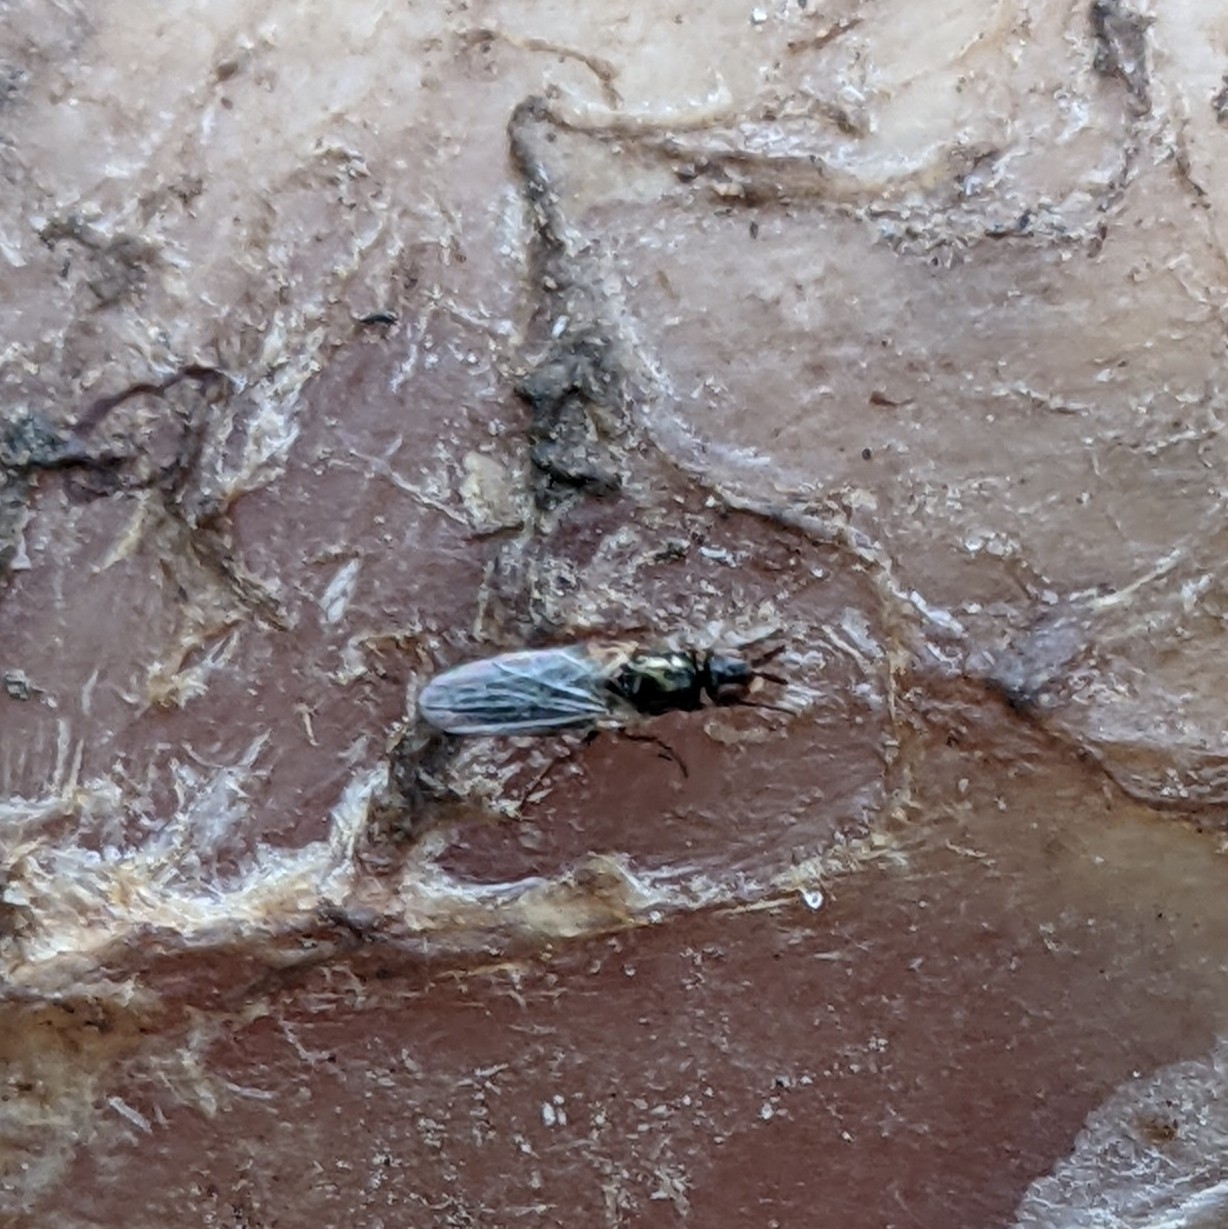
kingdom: Animalia
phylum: Arthropoda
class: Insecta
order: Diptera
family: Piophilidae
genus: Prochyliza
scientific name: Prochyliza xanthostoma
